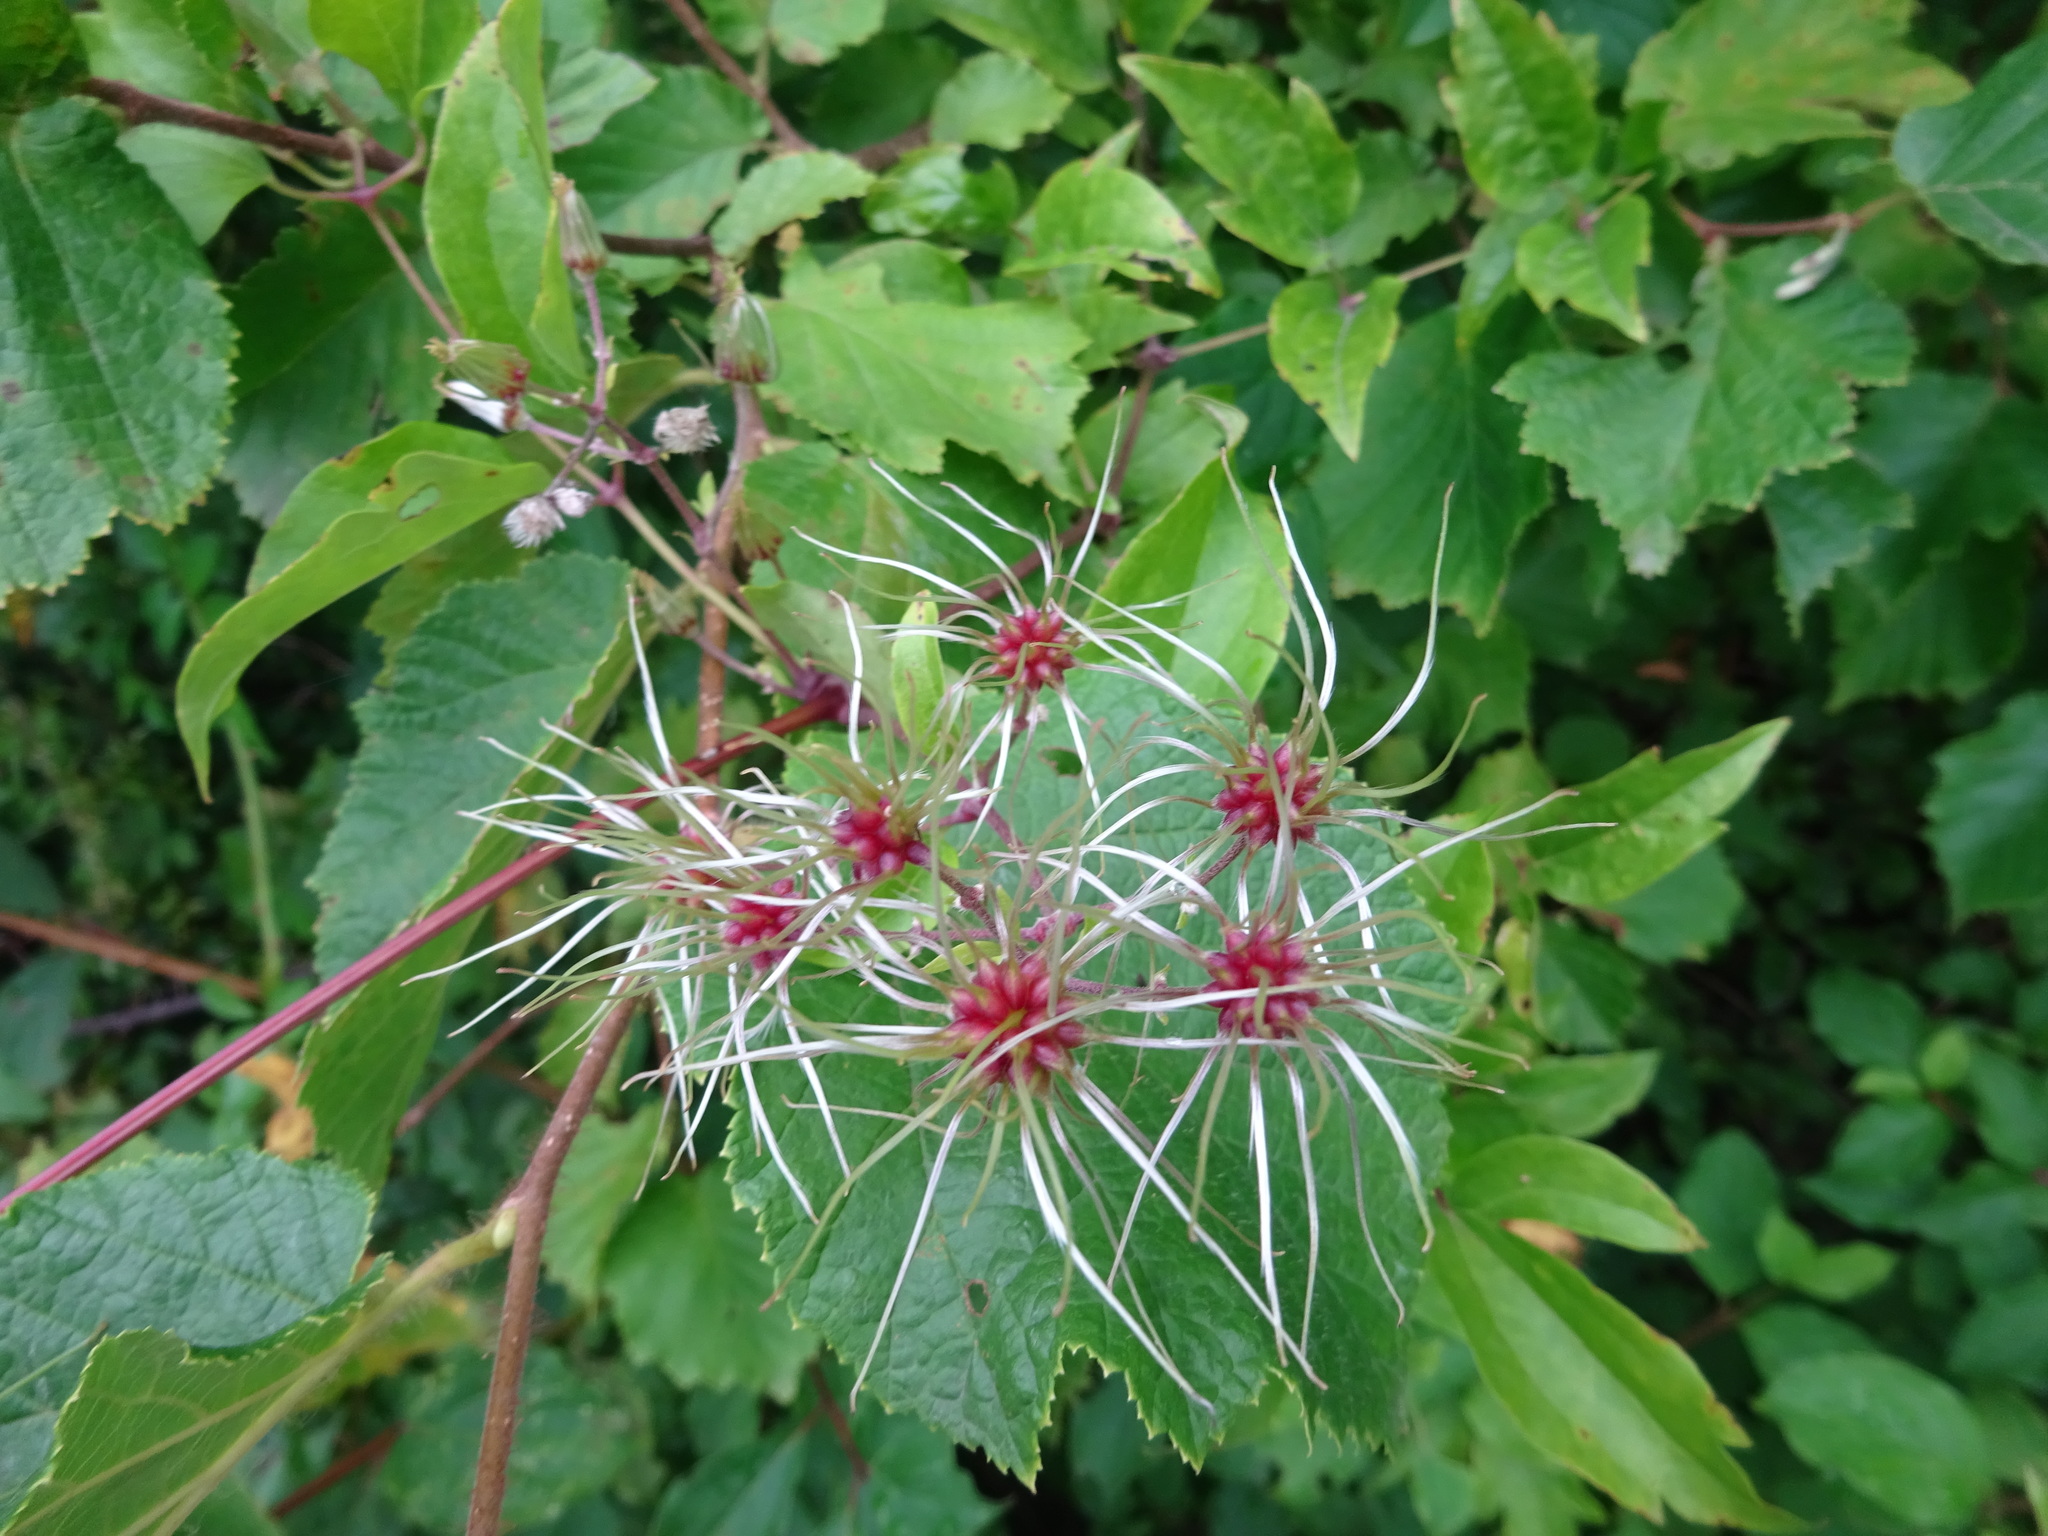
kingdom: Plantae
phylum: Tracheophyta
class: Magnoliopsida
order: Ranunculales
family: Ranunculaceae
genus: Clematis
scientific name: Clematis vitalba
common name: Evergreen clematis
